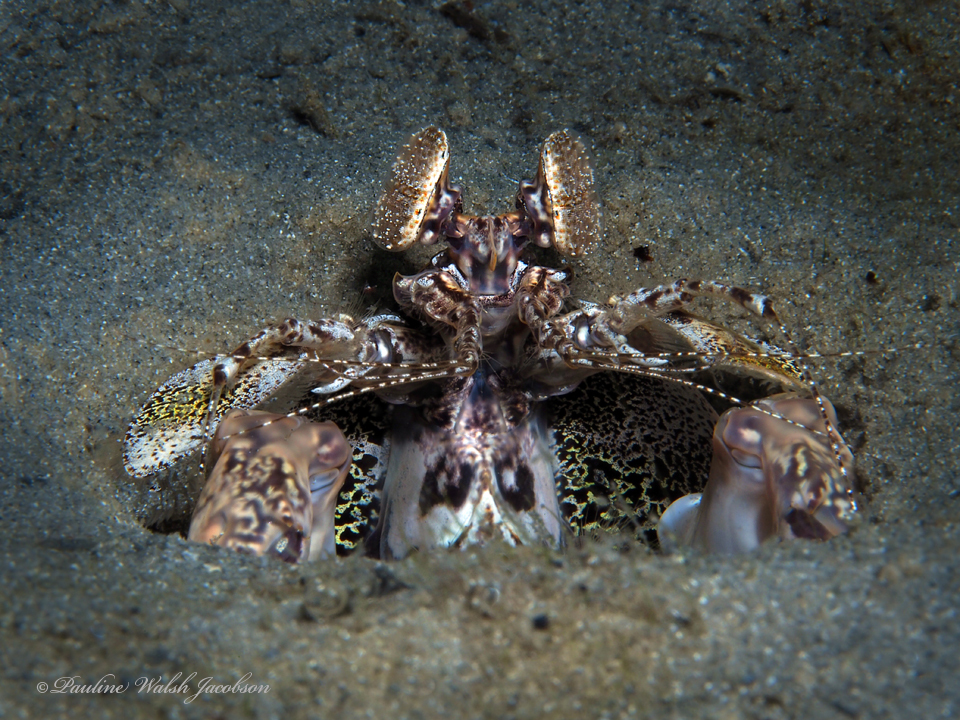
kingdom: Animalia
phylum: Arthropoda
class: Malacostraca
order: Stomatopoda
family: Lysiosquillidae
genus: Lysiosquilla
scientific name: Lysiosquilla scabricauda
